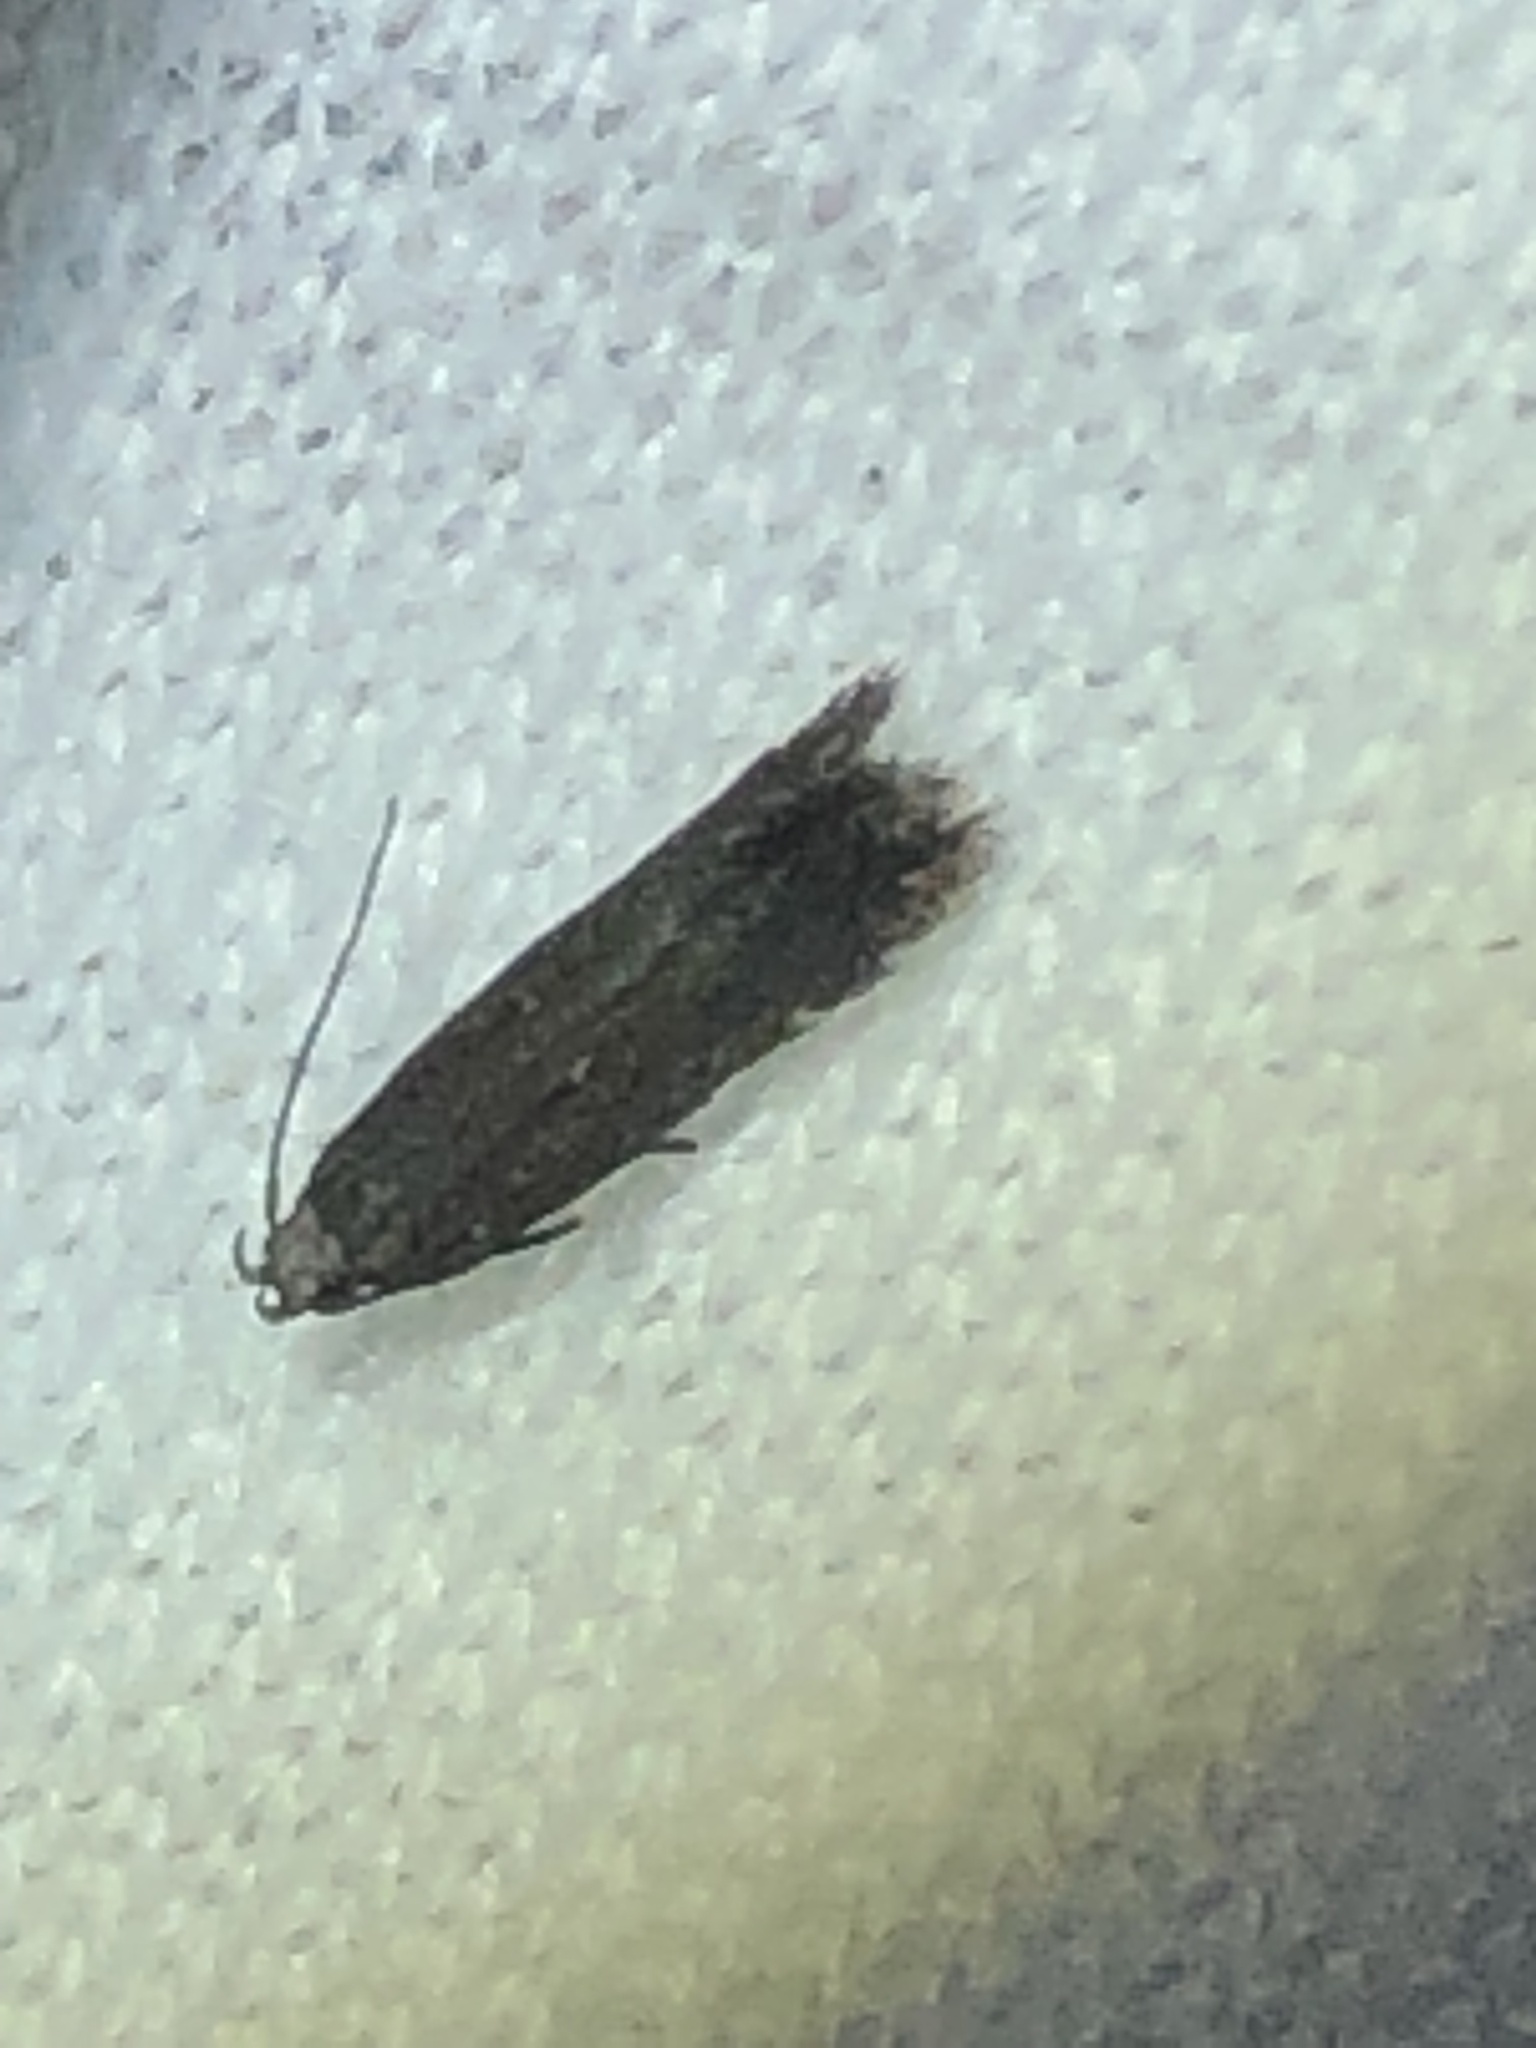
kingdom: Animalia
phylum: Arthropoda
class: Insecta
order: Lepidoptera
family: Gelechiidae
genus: Aproaerema
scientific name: Aproaerema palpilineella
